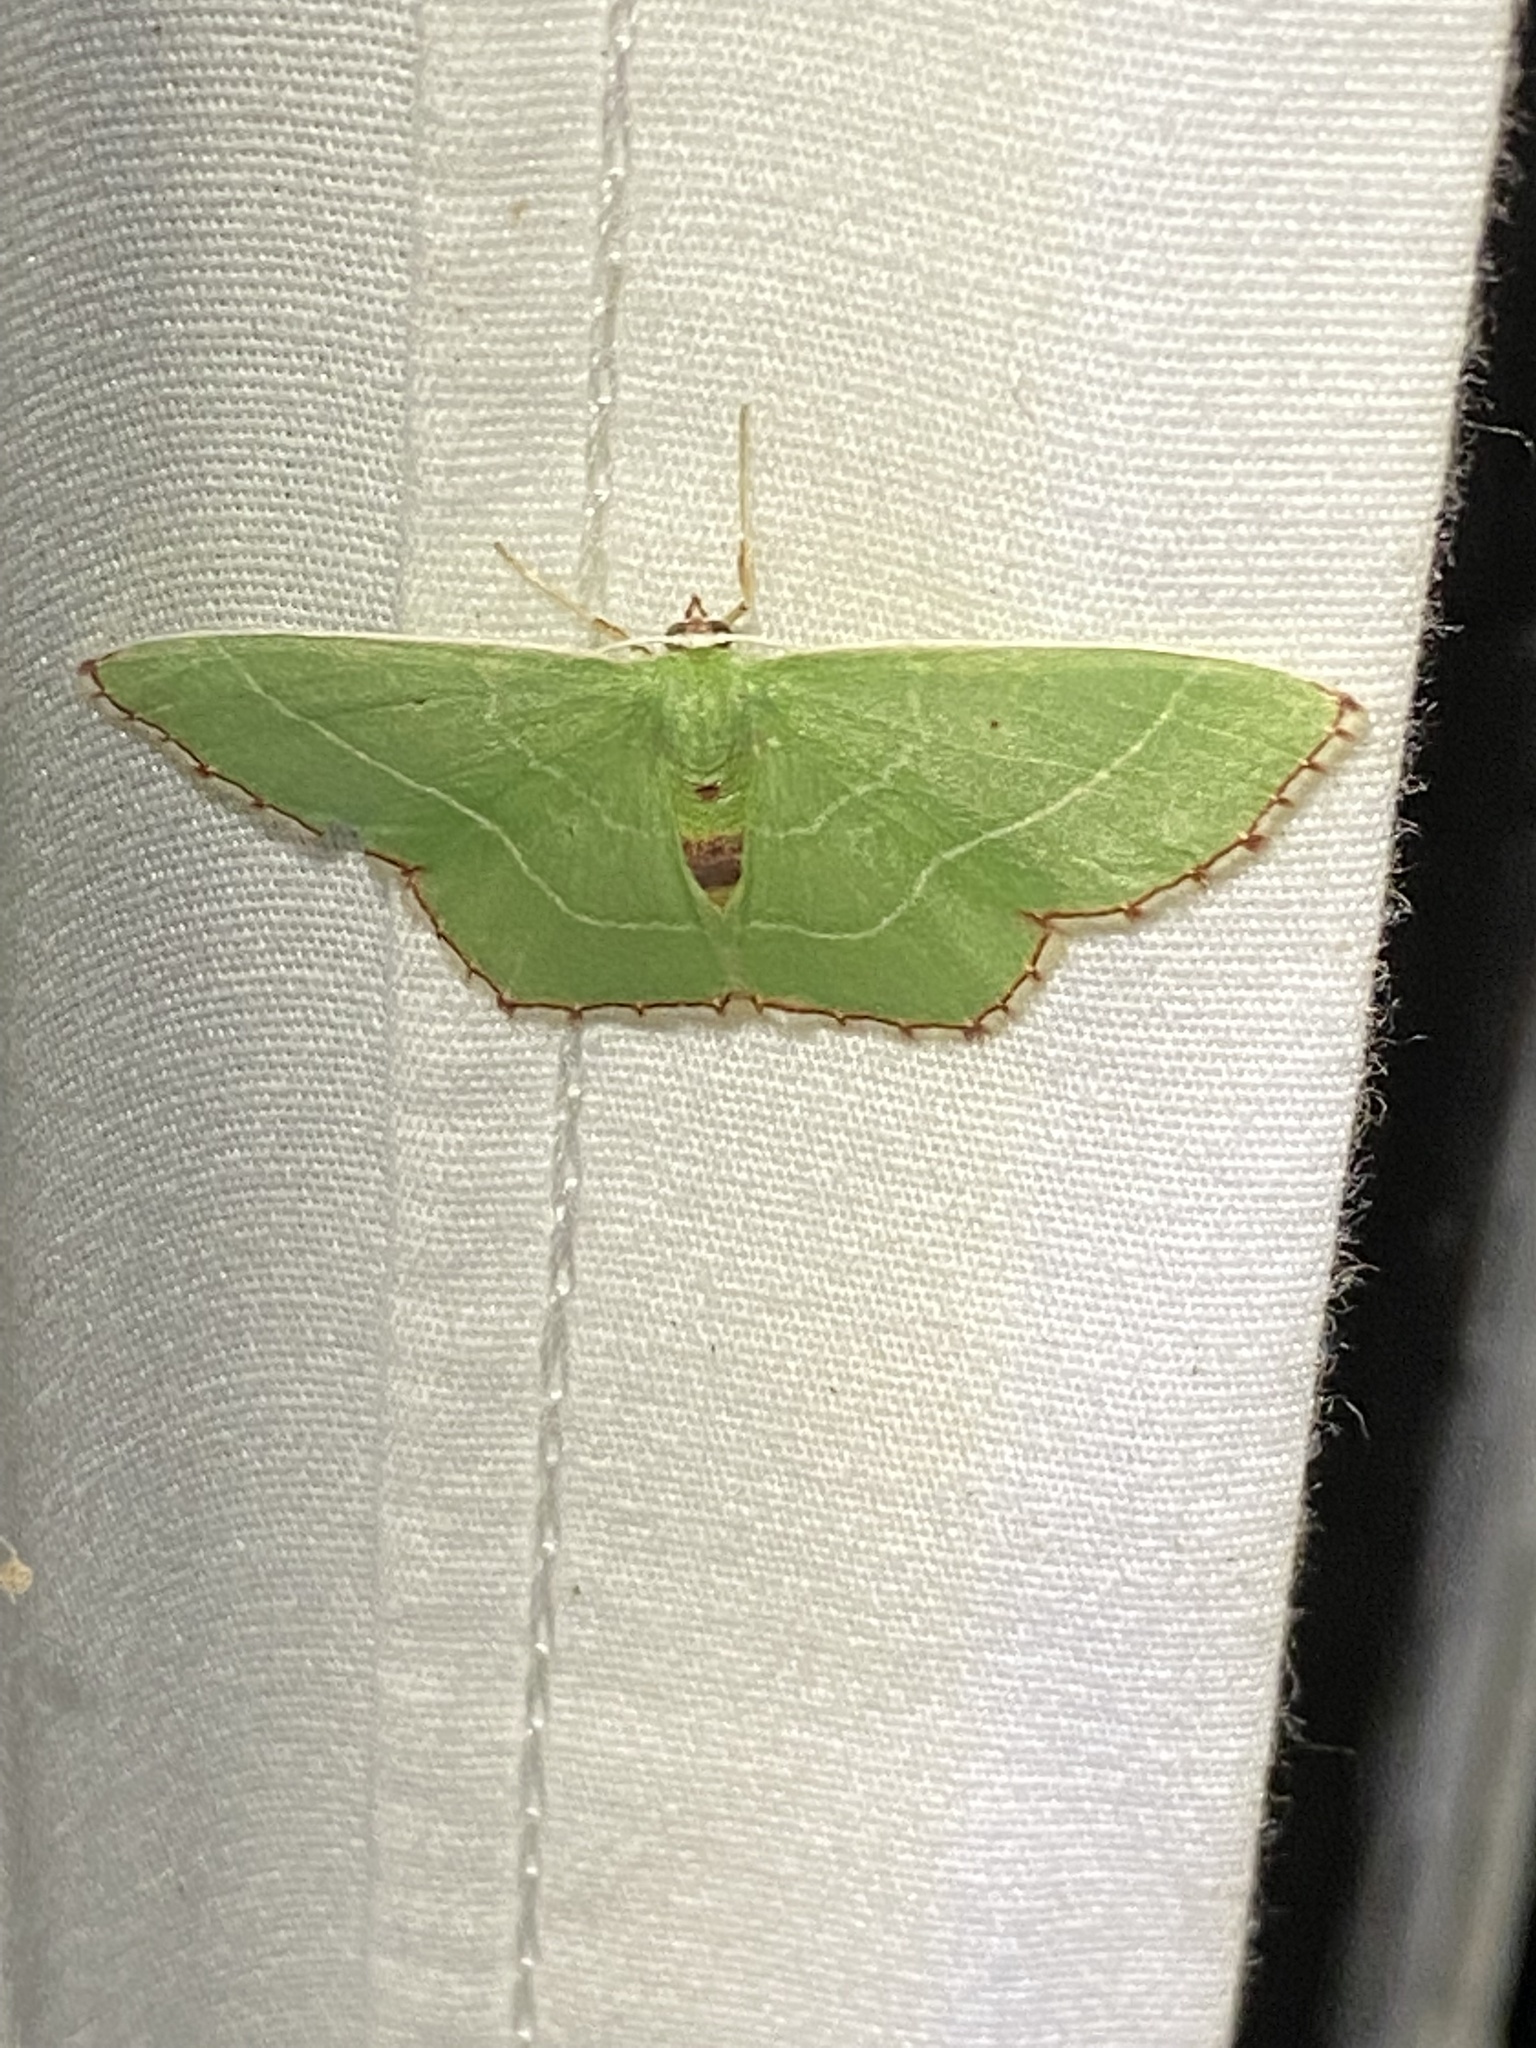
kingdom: Animalia
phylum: Arthropoda
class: Insecta
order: Lepidoptera
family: Geometridae
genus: Nemoria
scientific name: Nemoria saturiba
